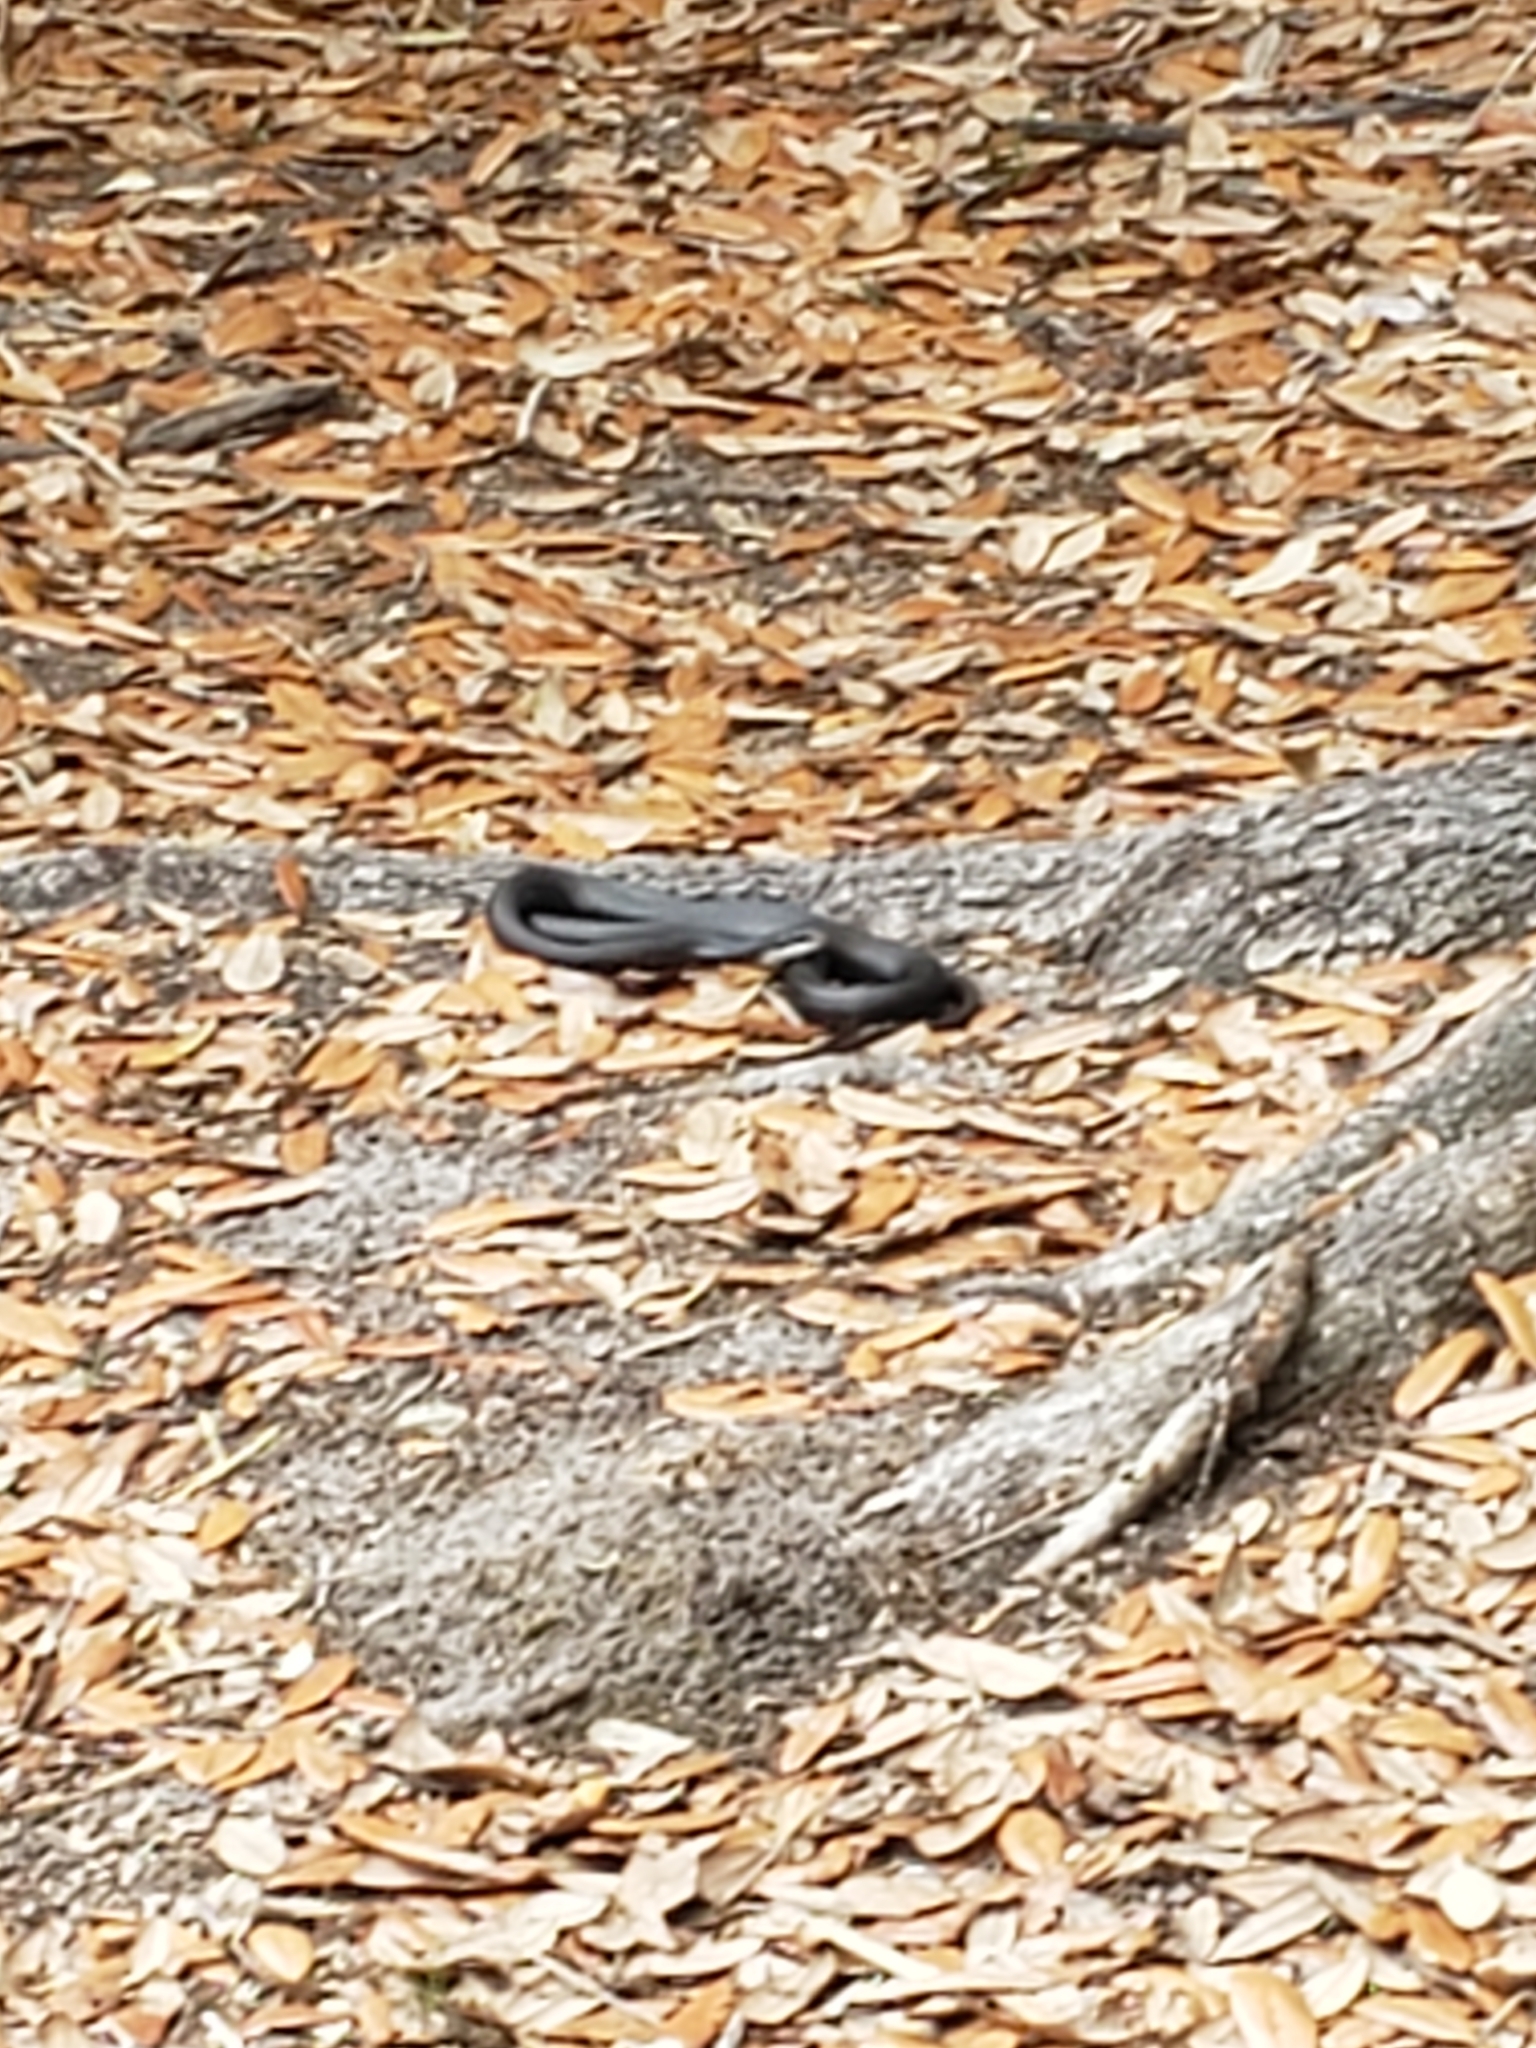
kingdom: Animalia
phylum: Chordata
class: Squamata
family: Colubridae
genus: Coluber
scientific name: Coluber constrictor
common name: Eastern racer
